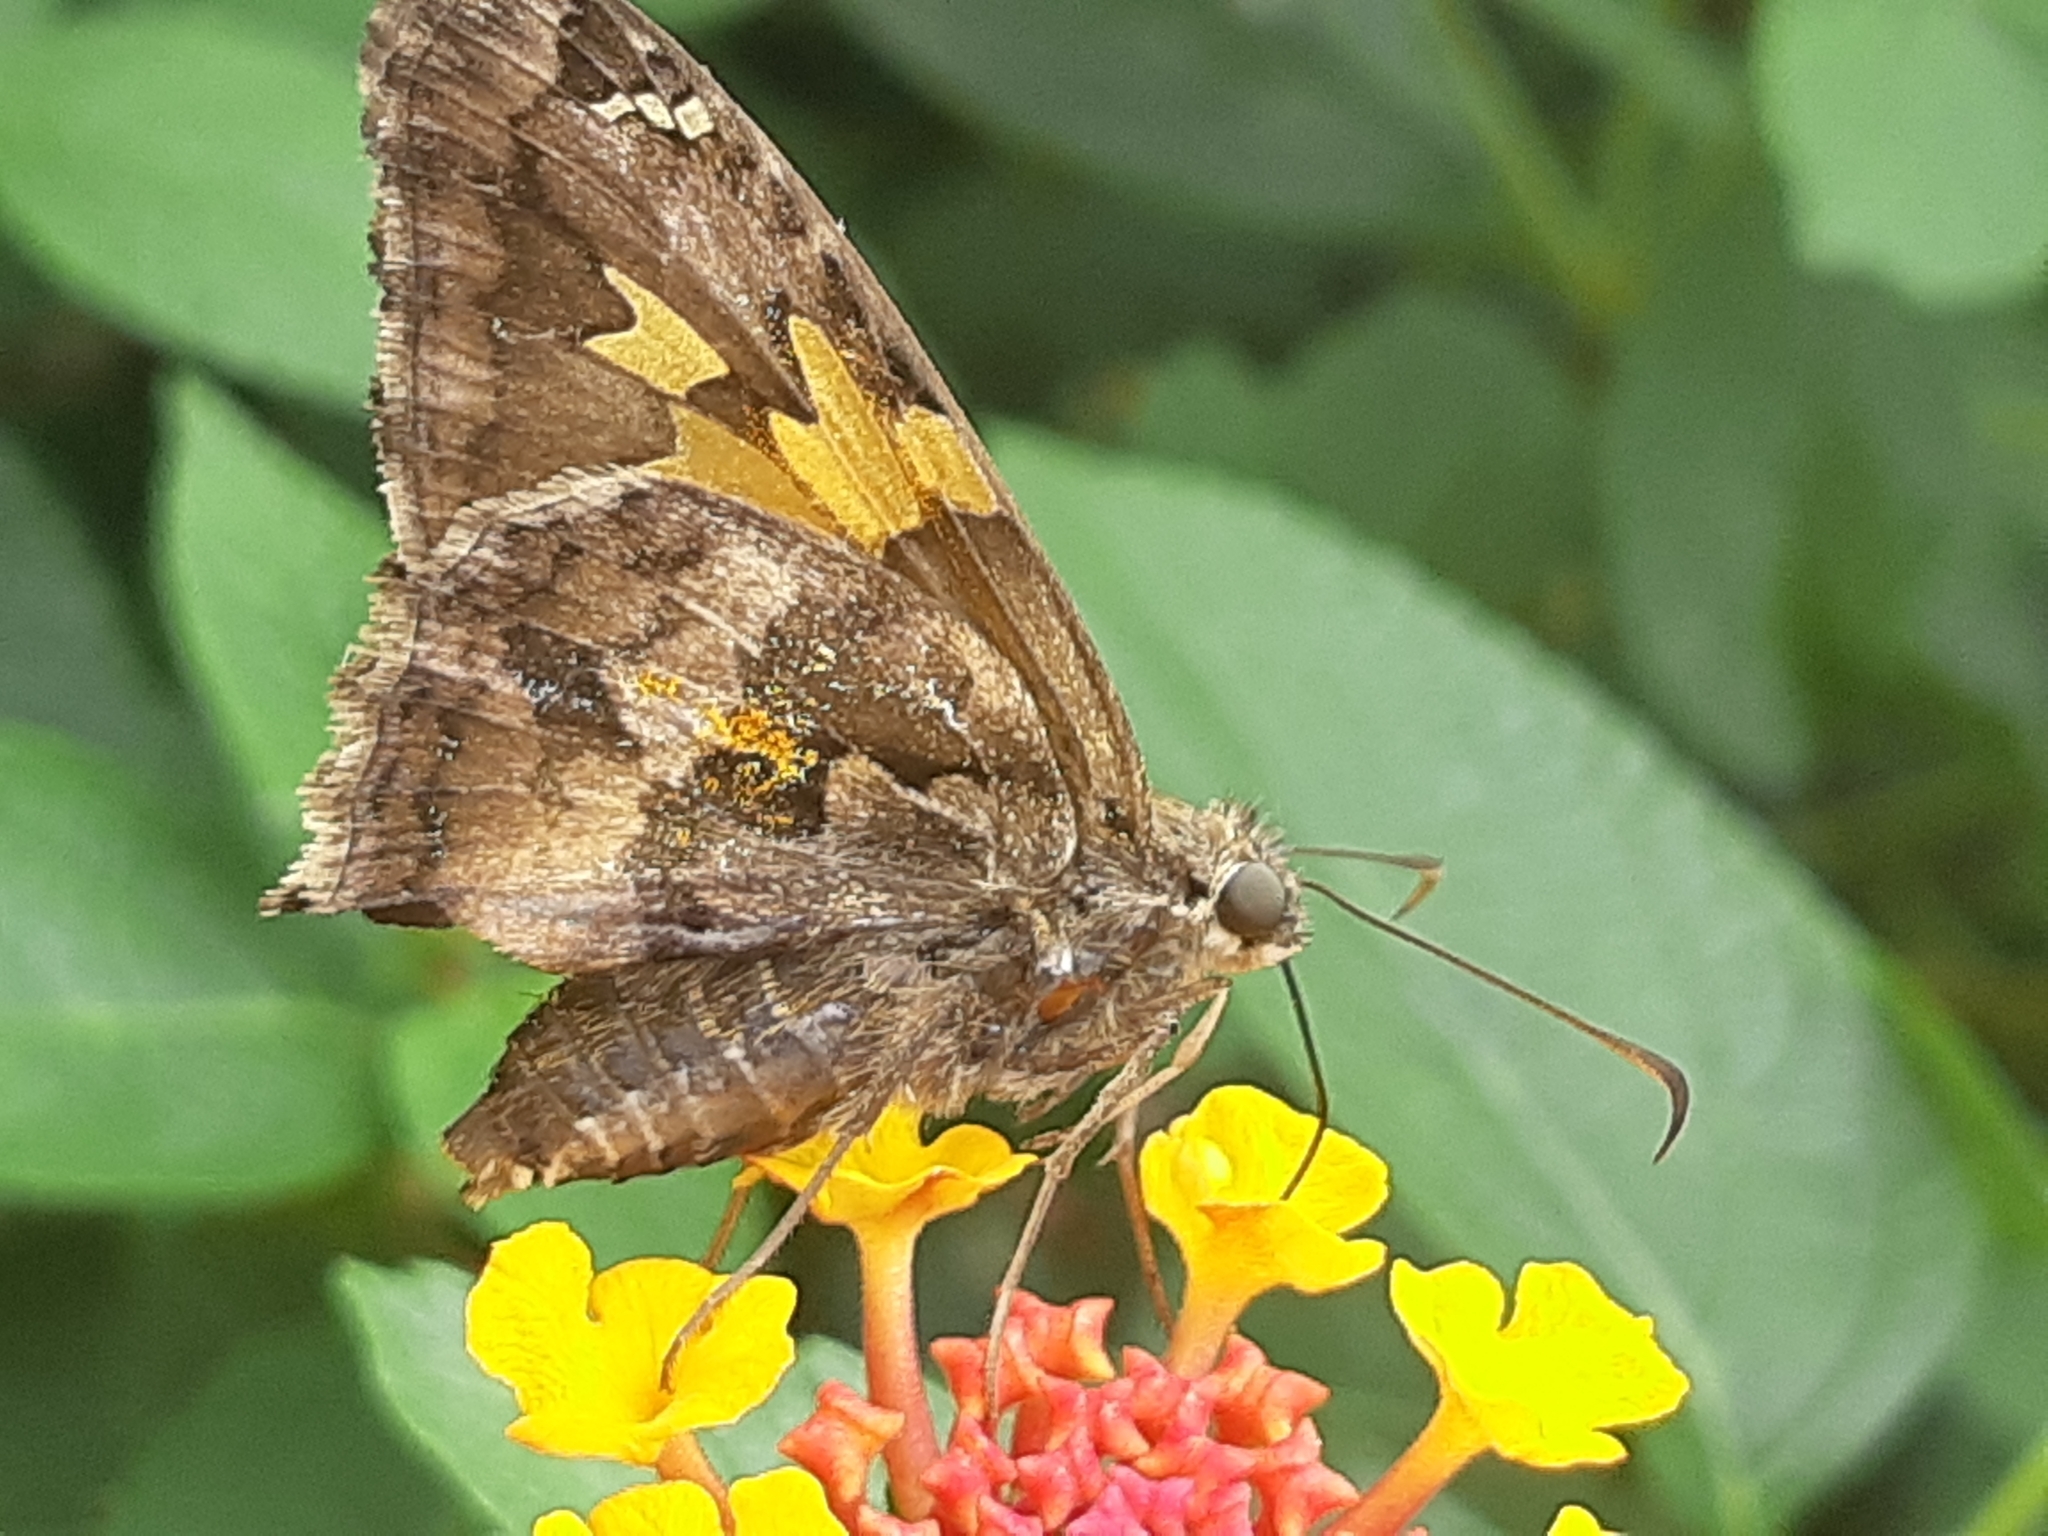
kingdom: Animalia
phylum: Arthropoda
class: Insecta
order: Lepidoptera
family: Hesperiidae
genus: Chioides
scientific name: Chioides iverna
